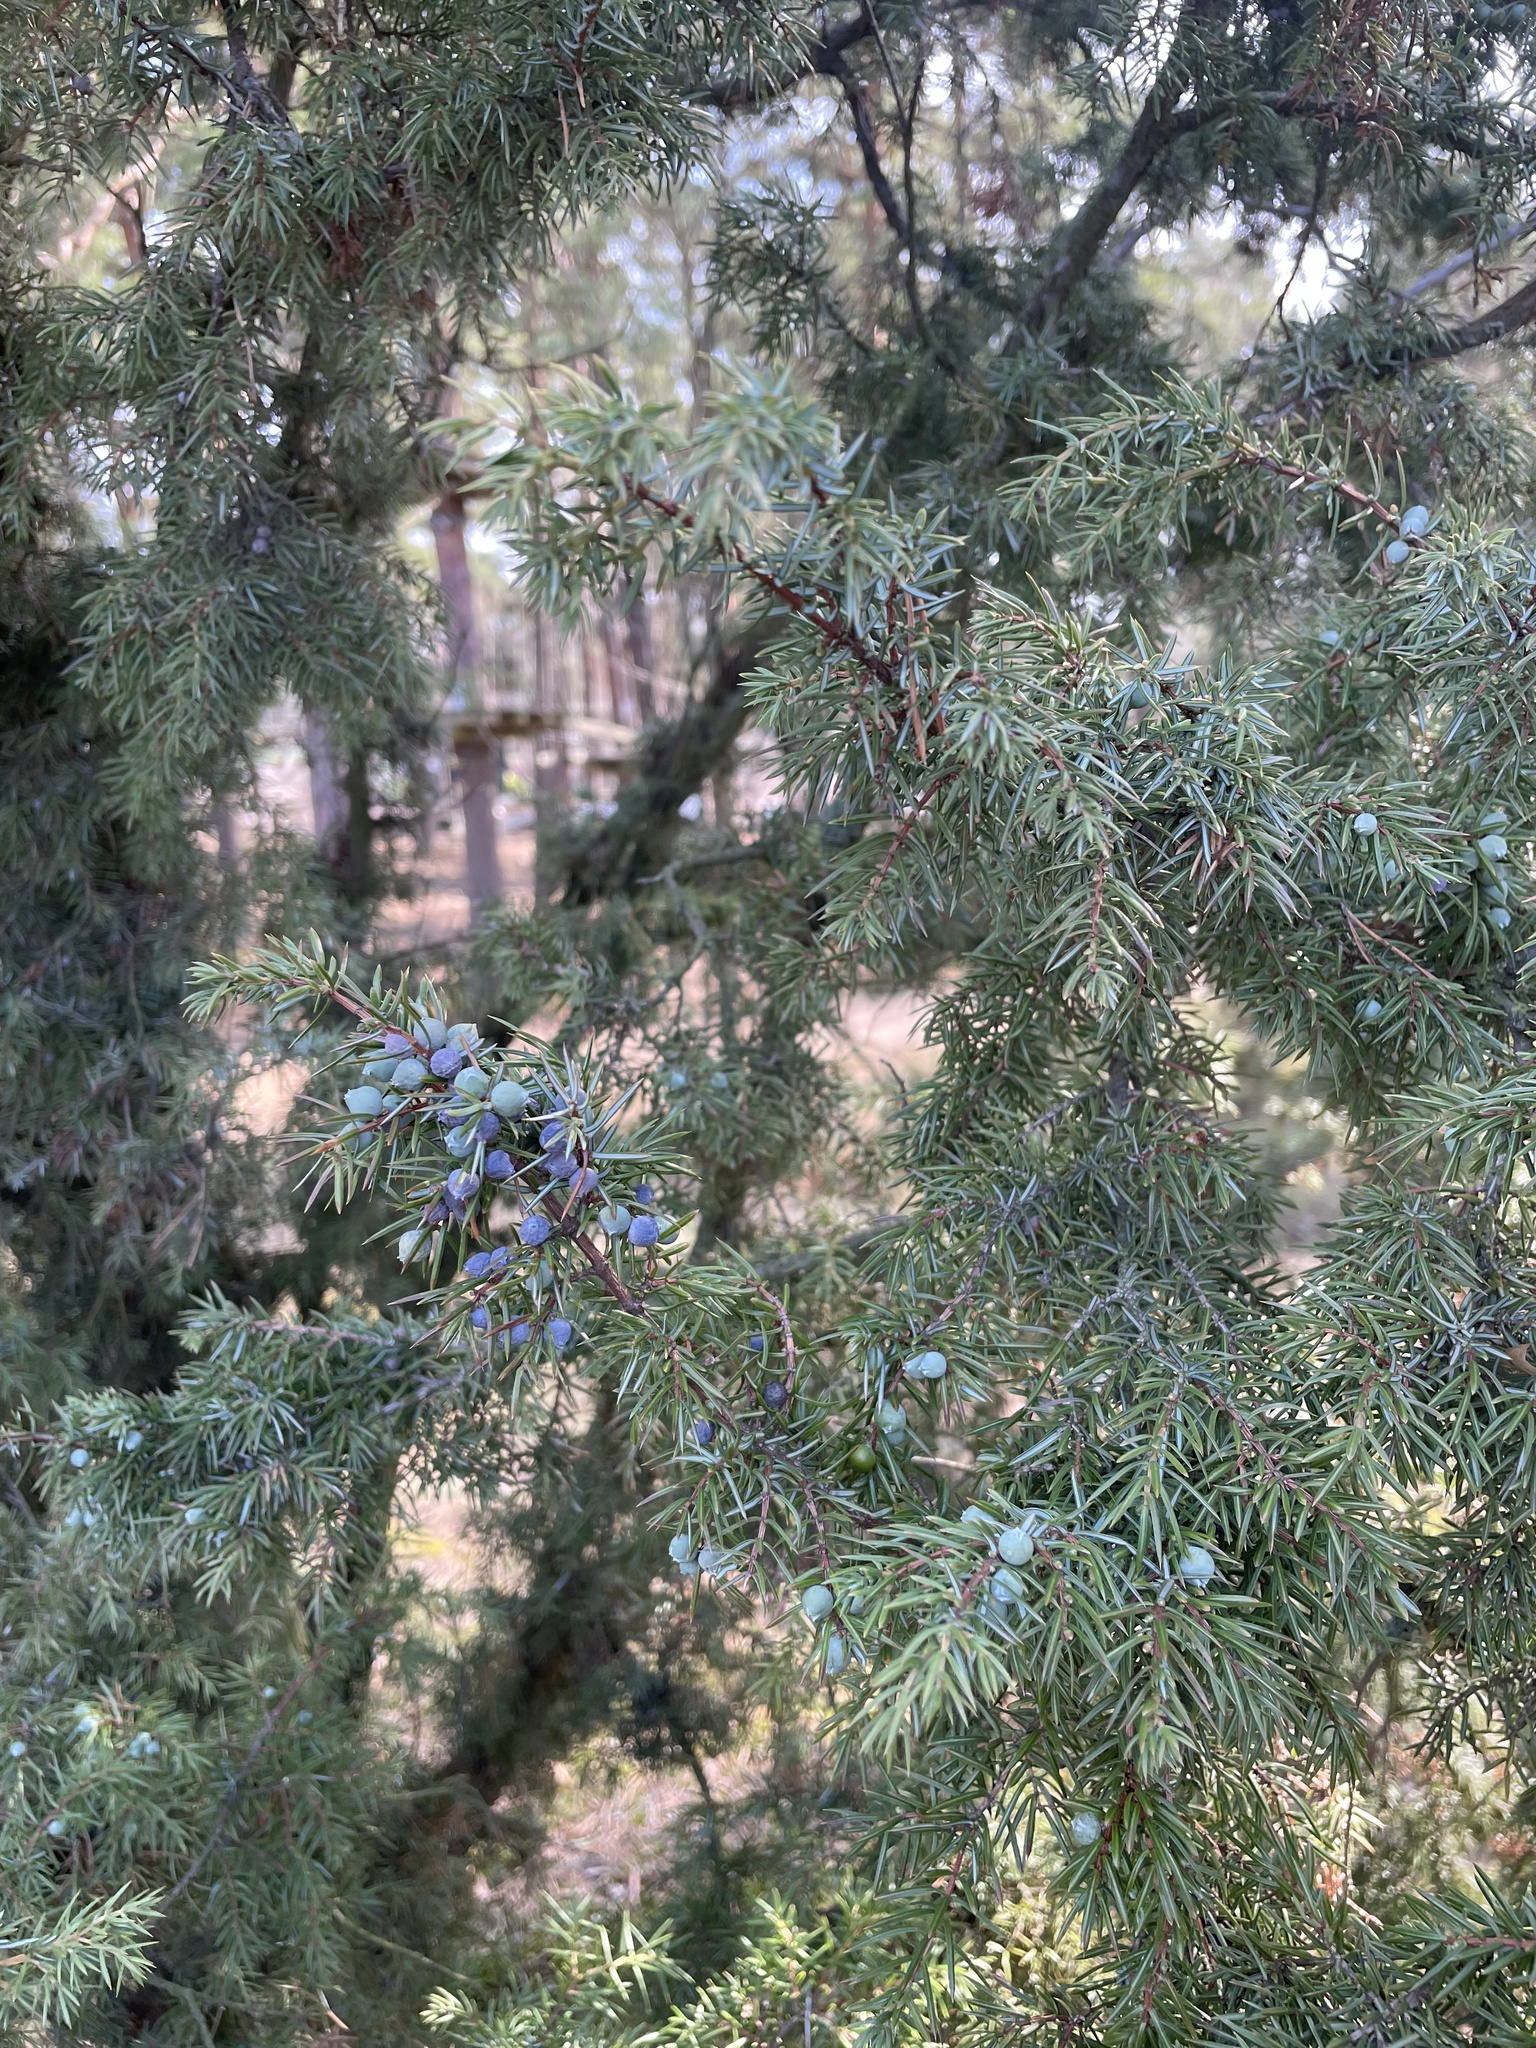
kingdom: Plantae
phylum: Tracheophyta
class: Pinopsida
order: Pinales
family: Cupressaceae
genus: Juniperus
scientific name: Juniperus communis
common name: Common juniper
